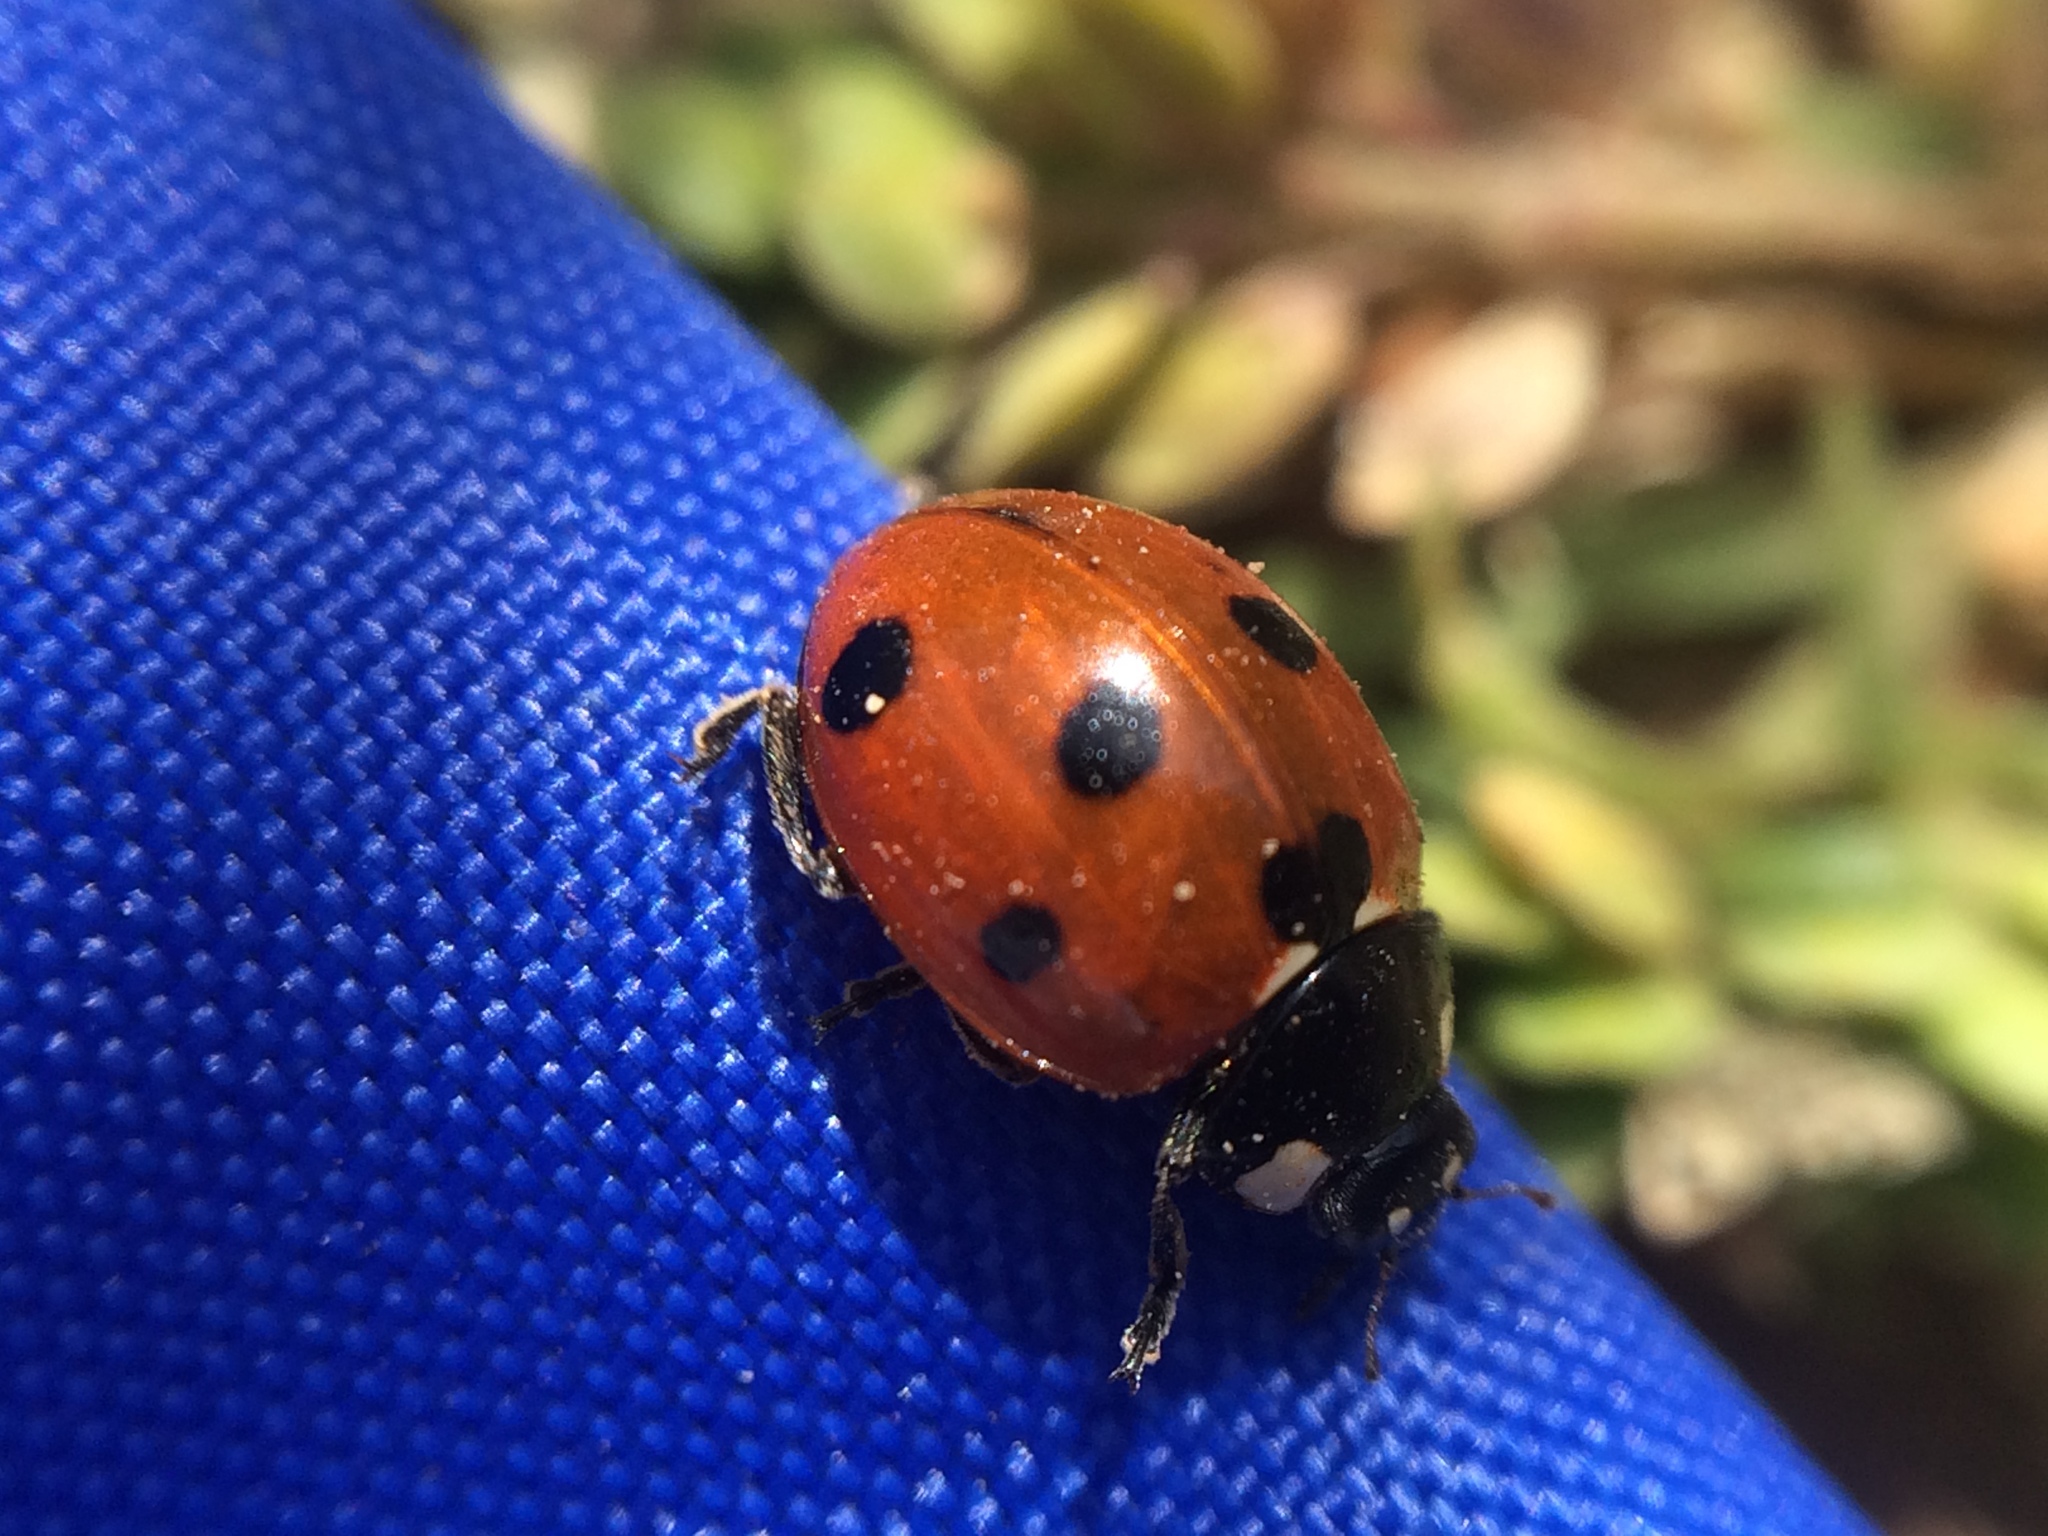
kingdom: Animalia
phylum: Arthropoda
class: Insecta
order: Coleoptera
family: Coccinellidae
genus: Coccinella
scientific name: Coccinella septempunctata
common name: Sevenspotted lady beetle
